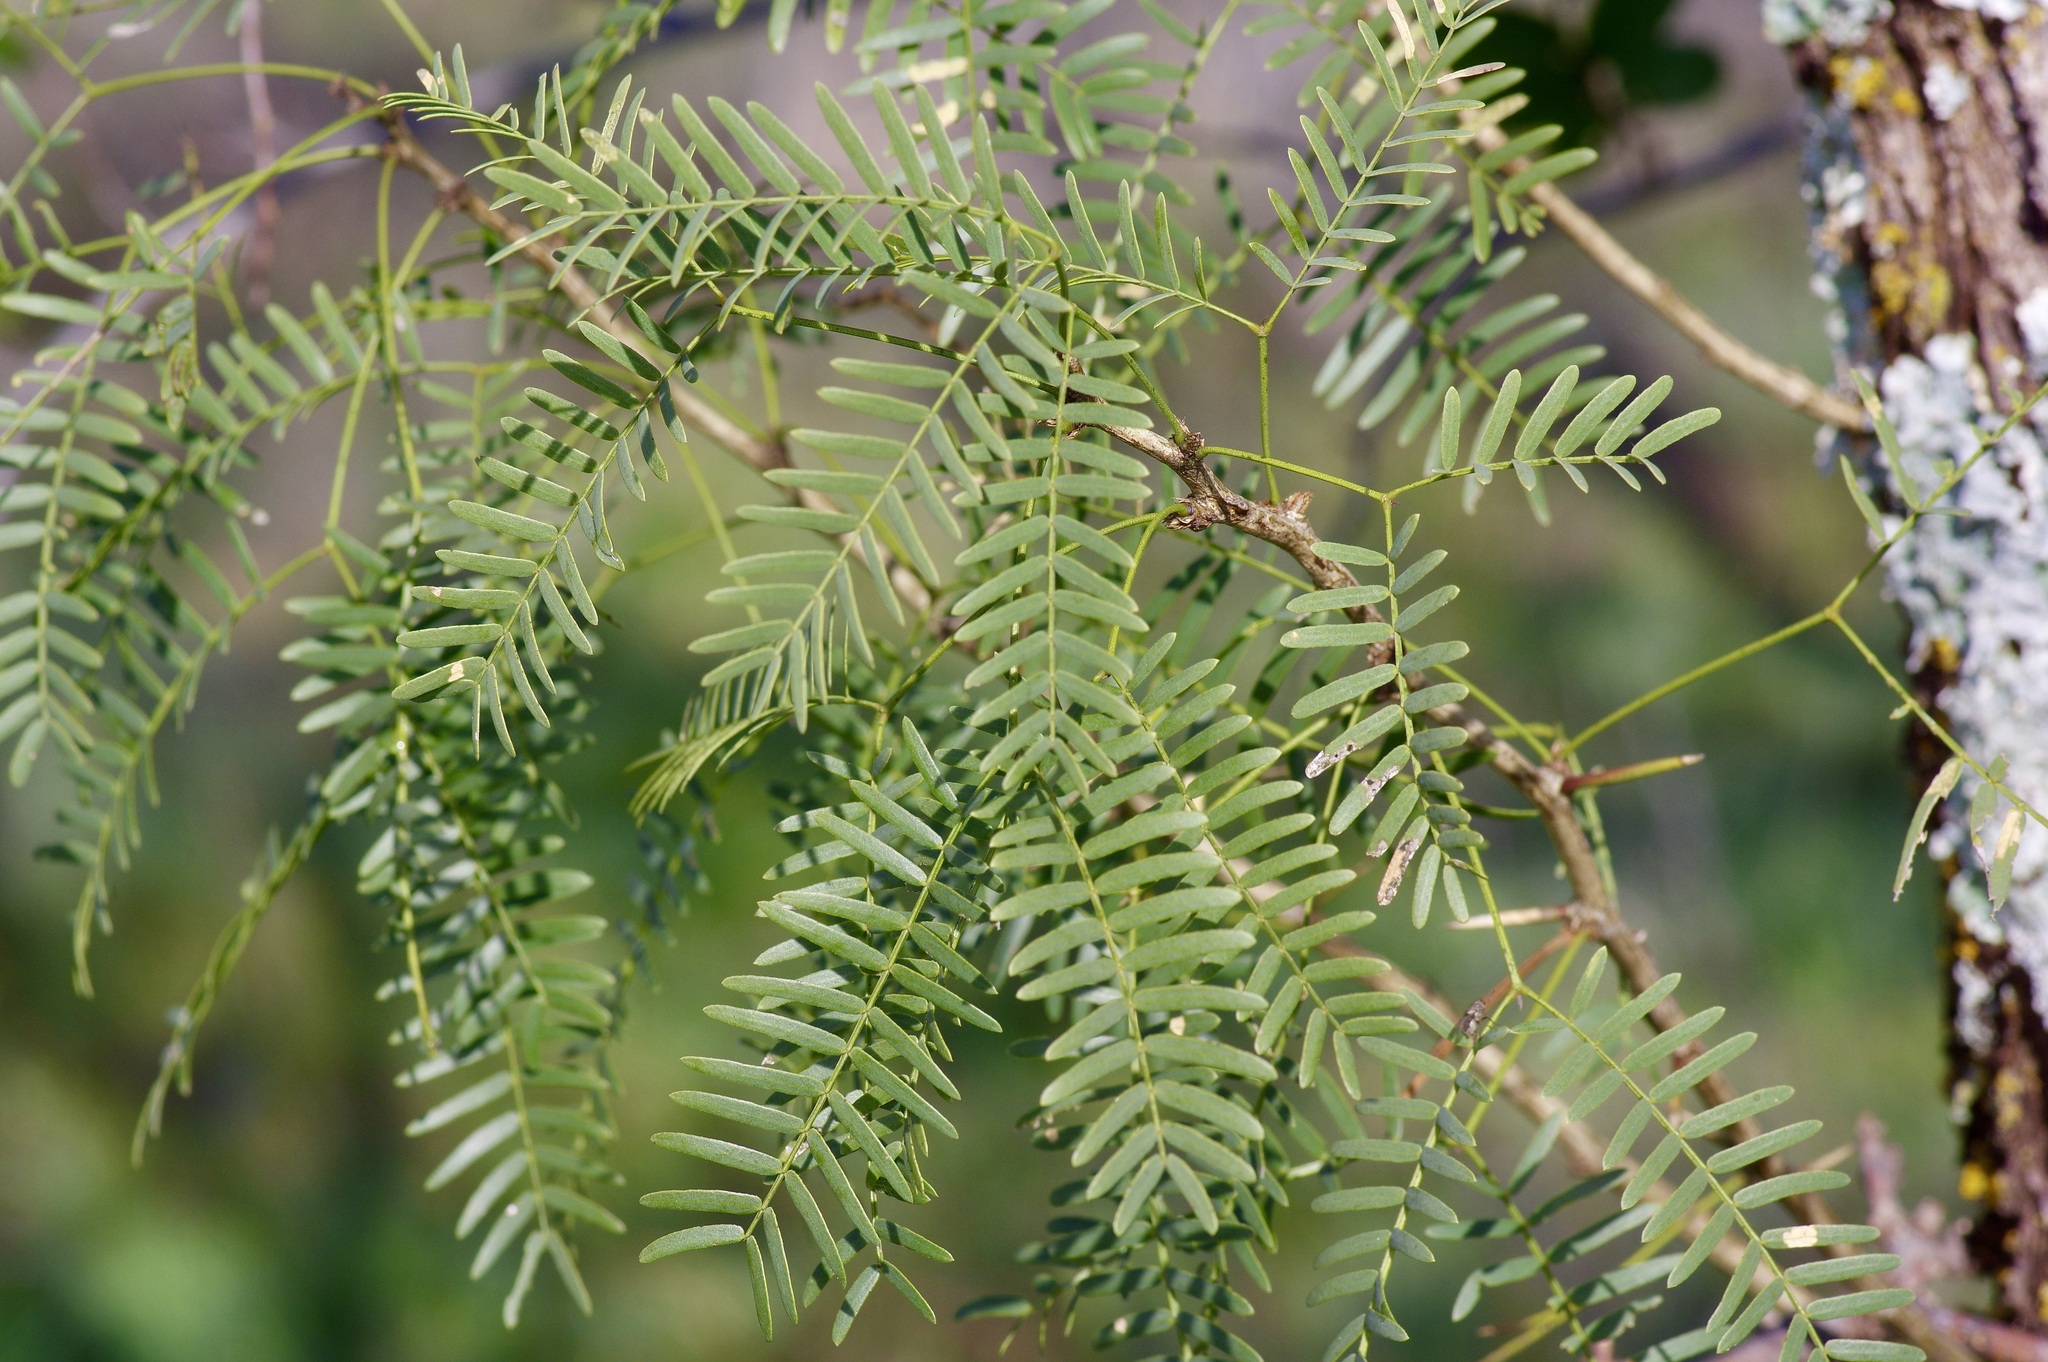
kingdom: Plantae
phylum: Tracheophyta
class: Magnoliopsida
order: Fabales
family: Fabaceae
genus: Prosopis
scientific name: Prosopis glandulosa
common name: Honey mesquite
